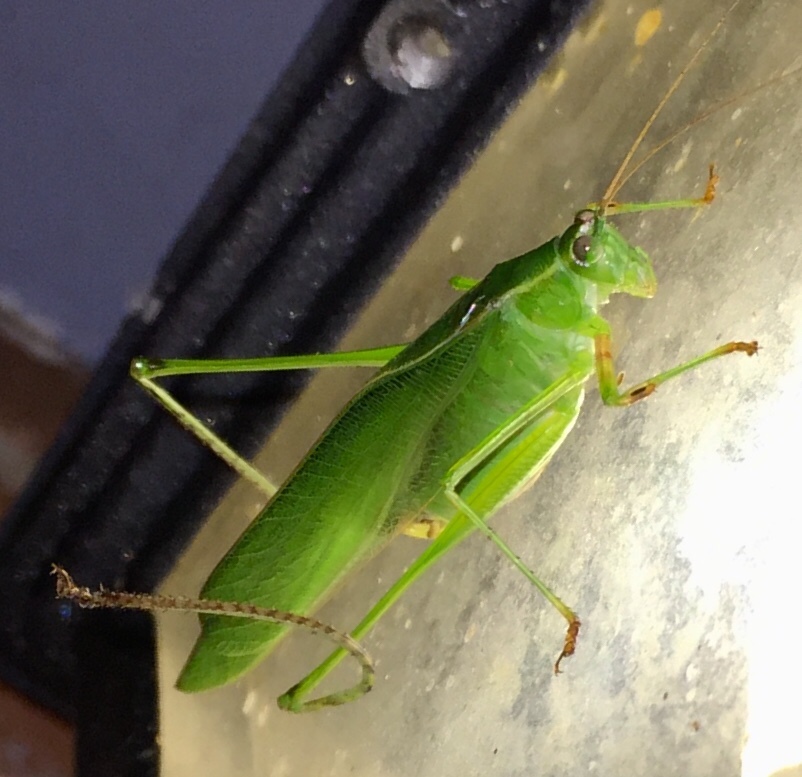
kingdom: Animalia
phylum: Arthropoda
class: Insecta
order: Orthoptera
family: Tettigoniidae
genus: Scudderia
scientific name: Scudderia furcata
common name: Fork-tailed bush katydid
